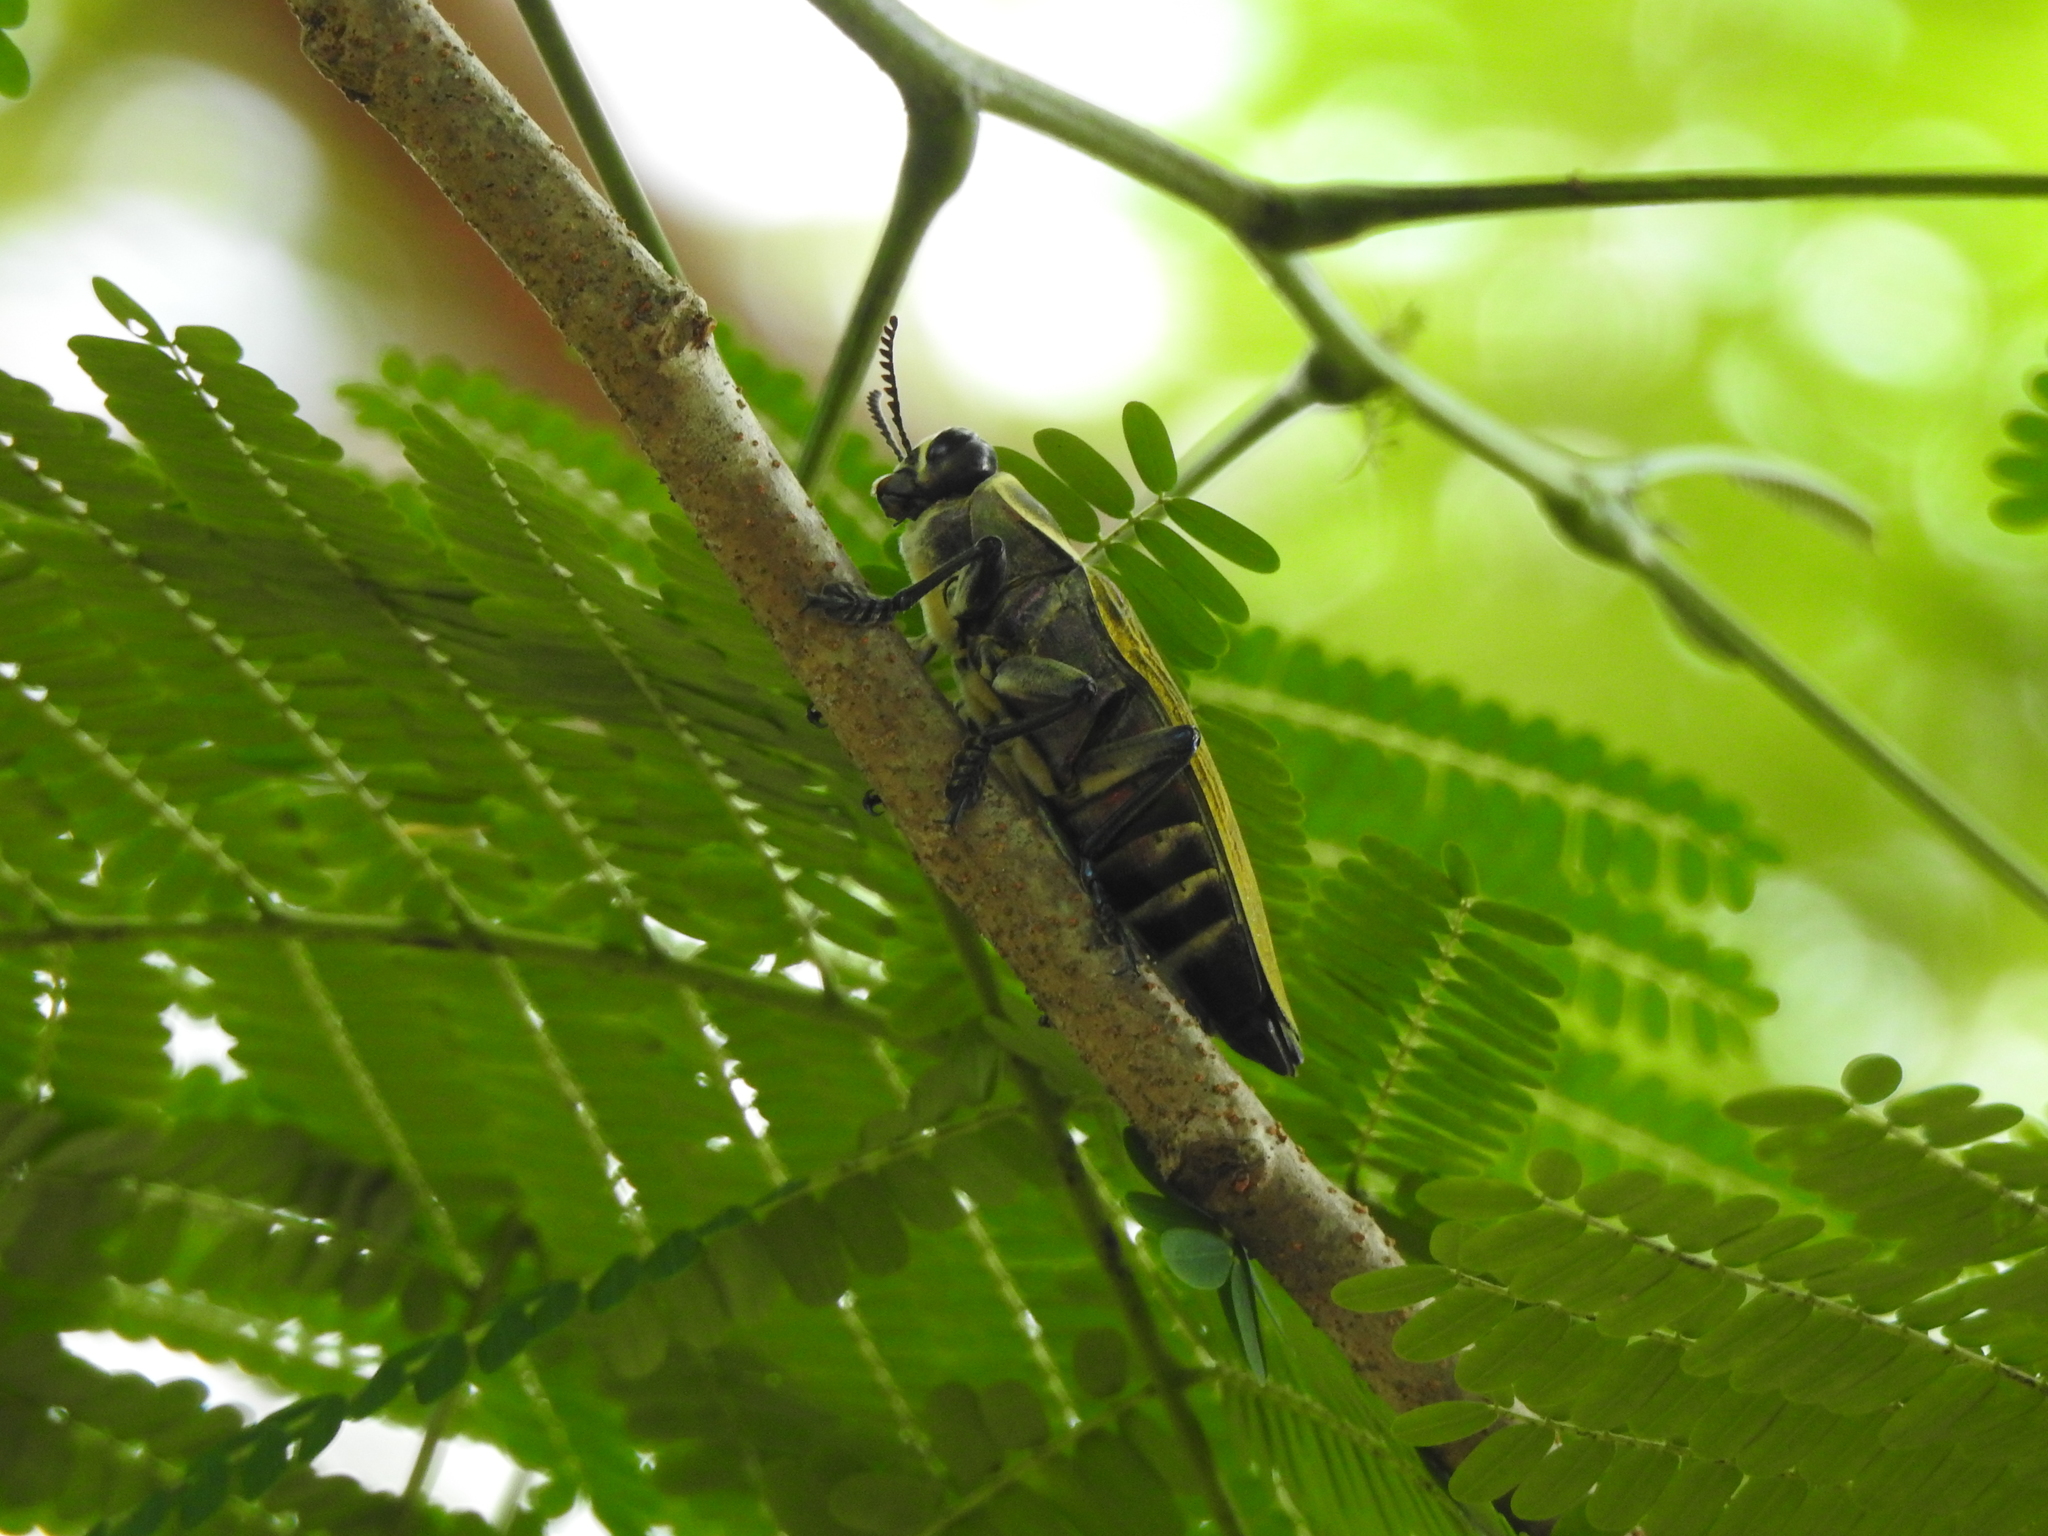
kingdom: Animalia
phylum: Arthropoda
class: Insecta
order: Coleoptera
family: Buprestidae
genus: Euchroma
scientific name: Euchroma giganteum
